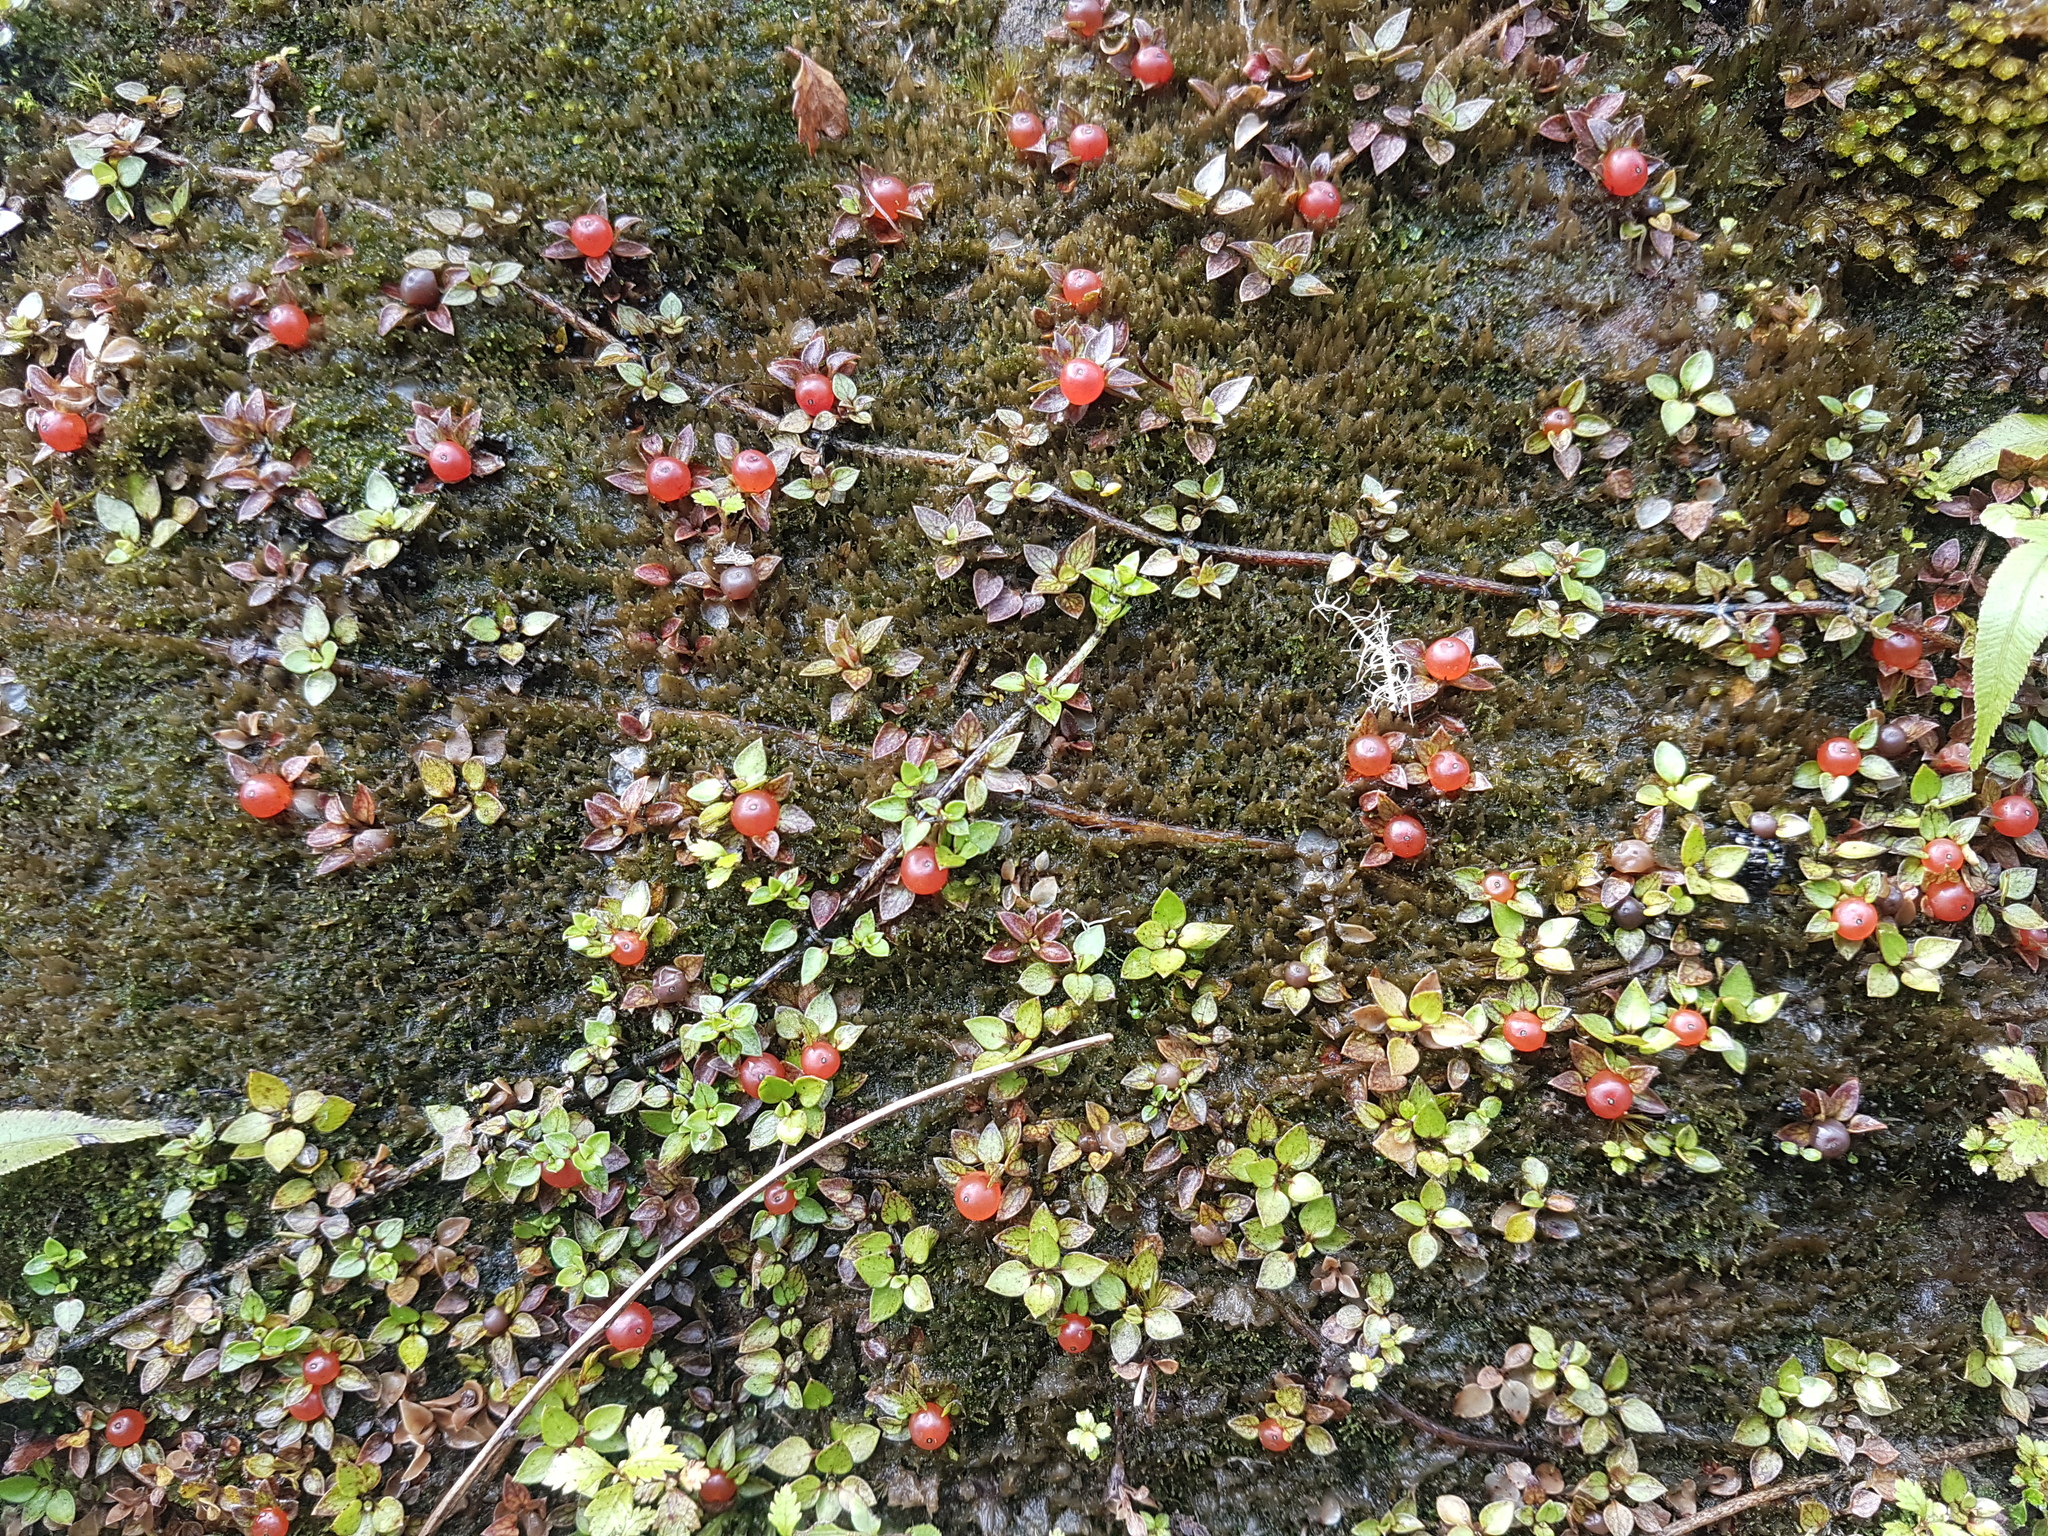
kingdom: Plantae
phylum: Tracheophyta
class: Magnoliopsida
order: Gentianales
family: Rubiaceae
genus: Nertera
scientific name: Nertera granadensis
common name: Beadplant
